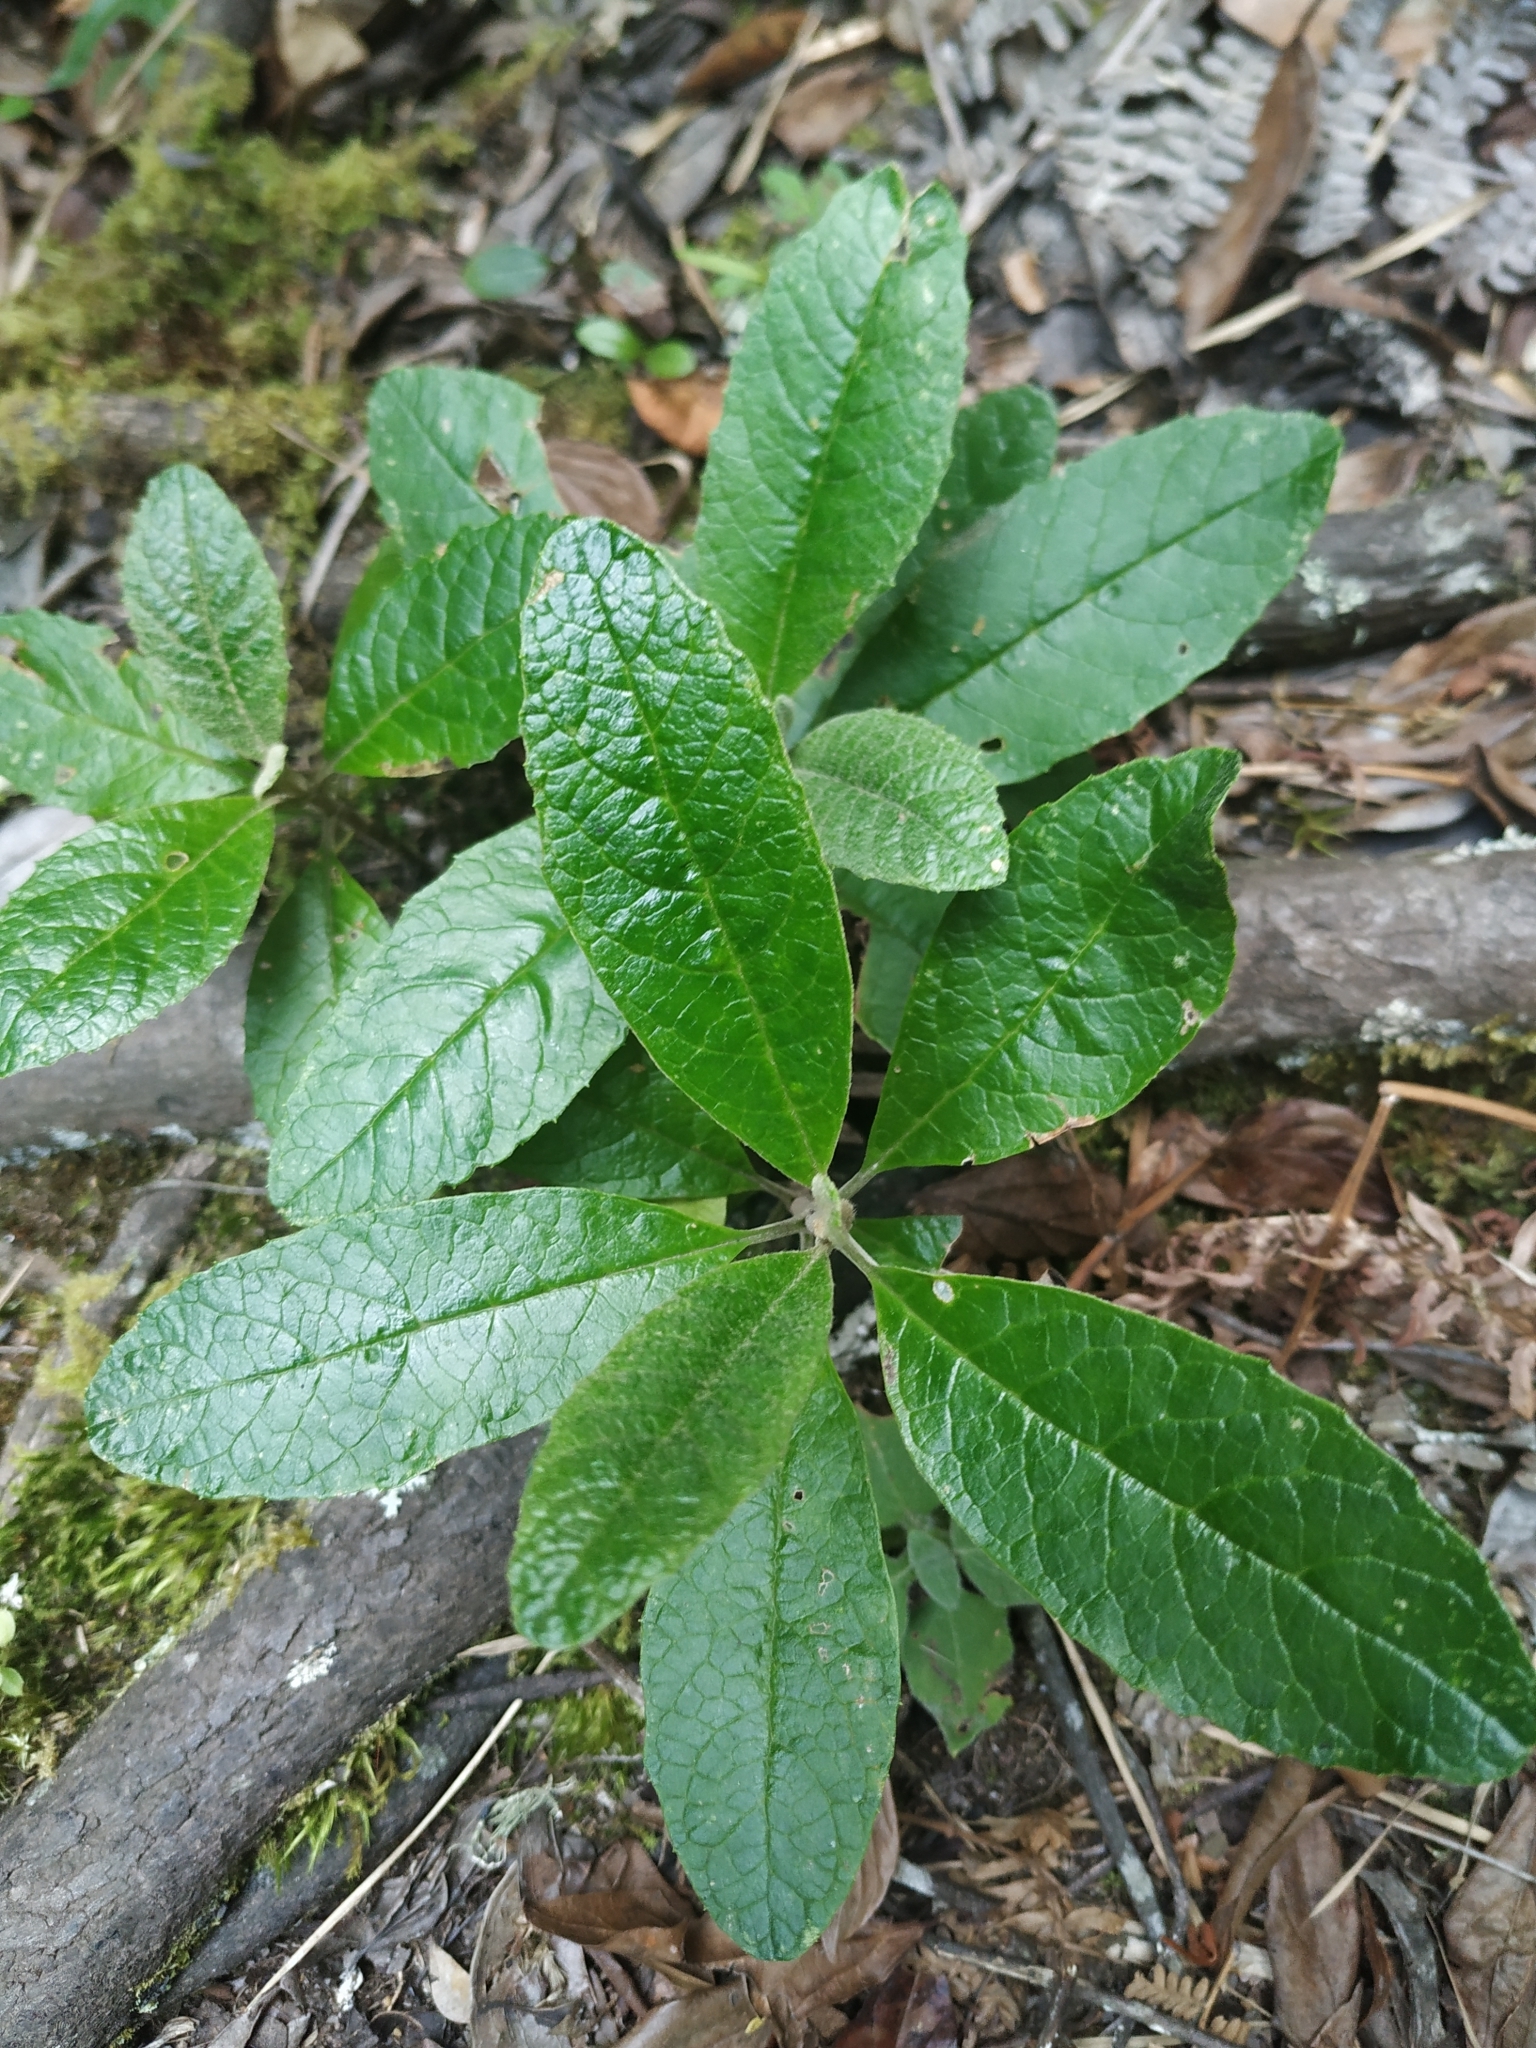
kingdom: Plantae
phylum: Tracheophyta
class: Magnoliopsida
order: Asterales
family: Asteraceae
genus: Linochilus
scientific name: Linochilus tenuifolius
